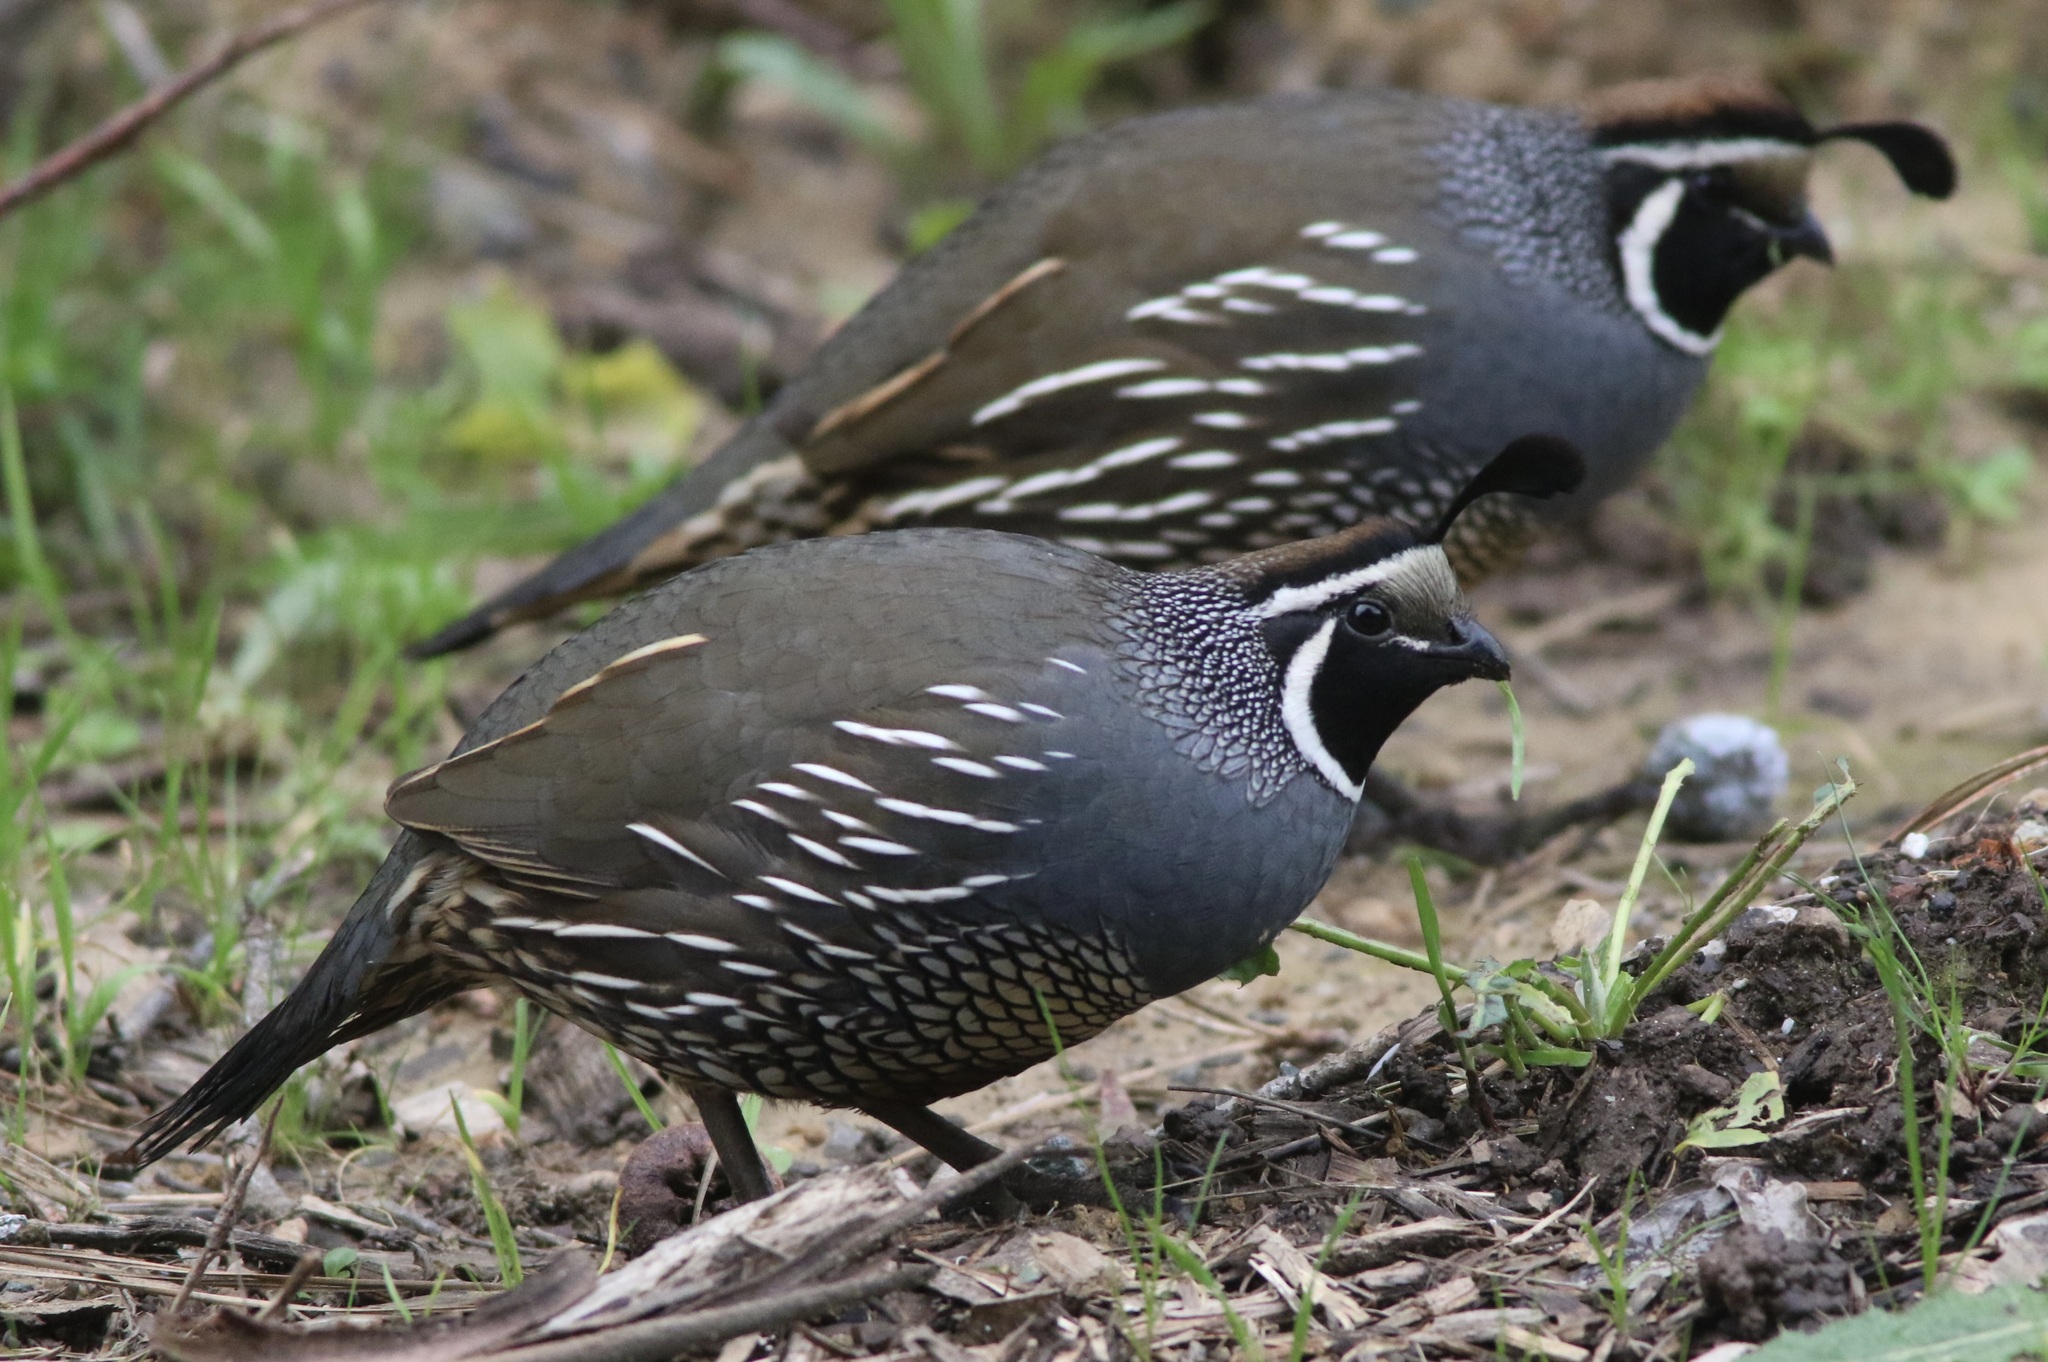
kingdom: Animalia
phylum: Chordata
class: Aves
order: Galliformes
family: Odontophoridae
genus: Callipepla
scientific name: Callipepla californica
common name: California quail
